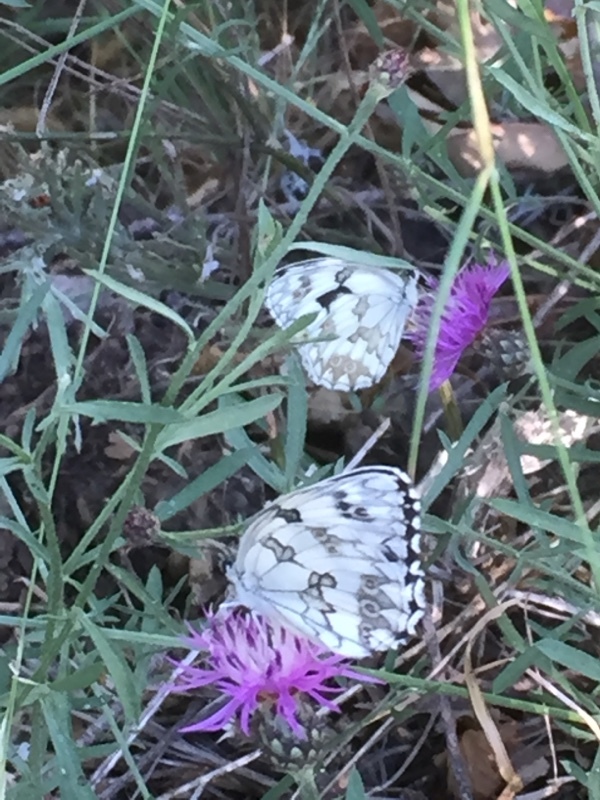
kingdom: Animalia
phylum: Arthropoda
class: Insecta
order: Lepidoptera
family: Nymphalidae
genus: Melanargia
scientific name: Melanargia lachesis
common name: Iberian marbled white
